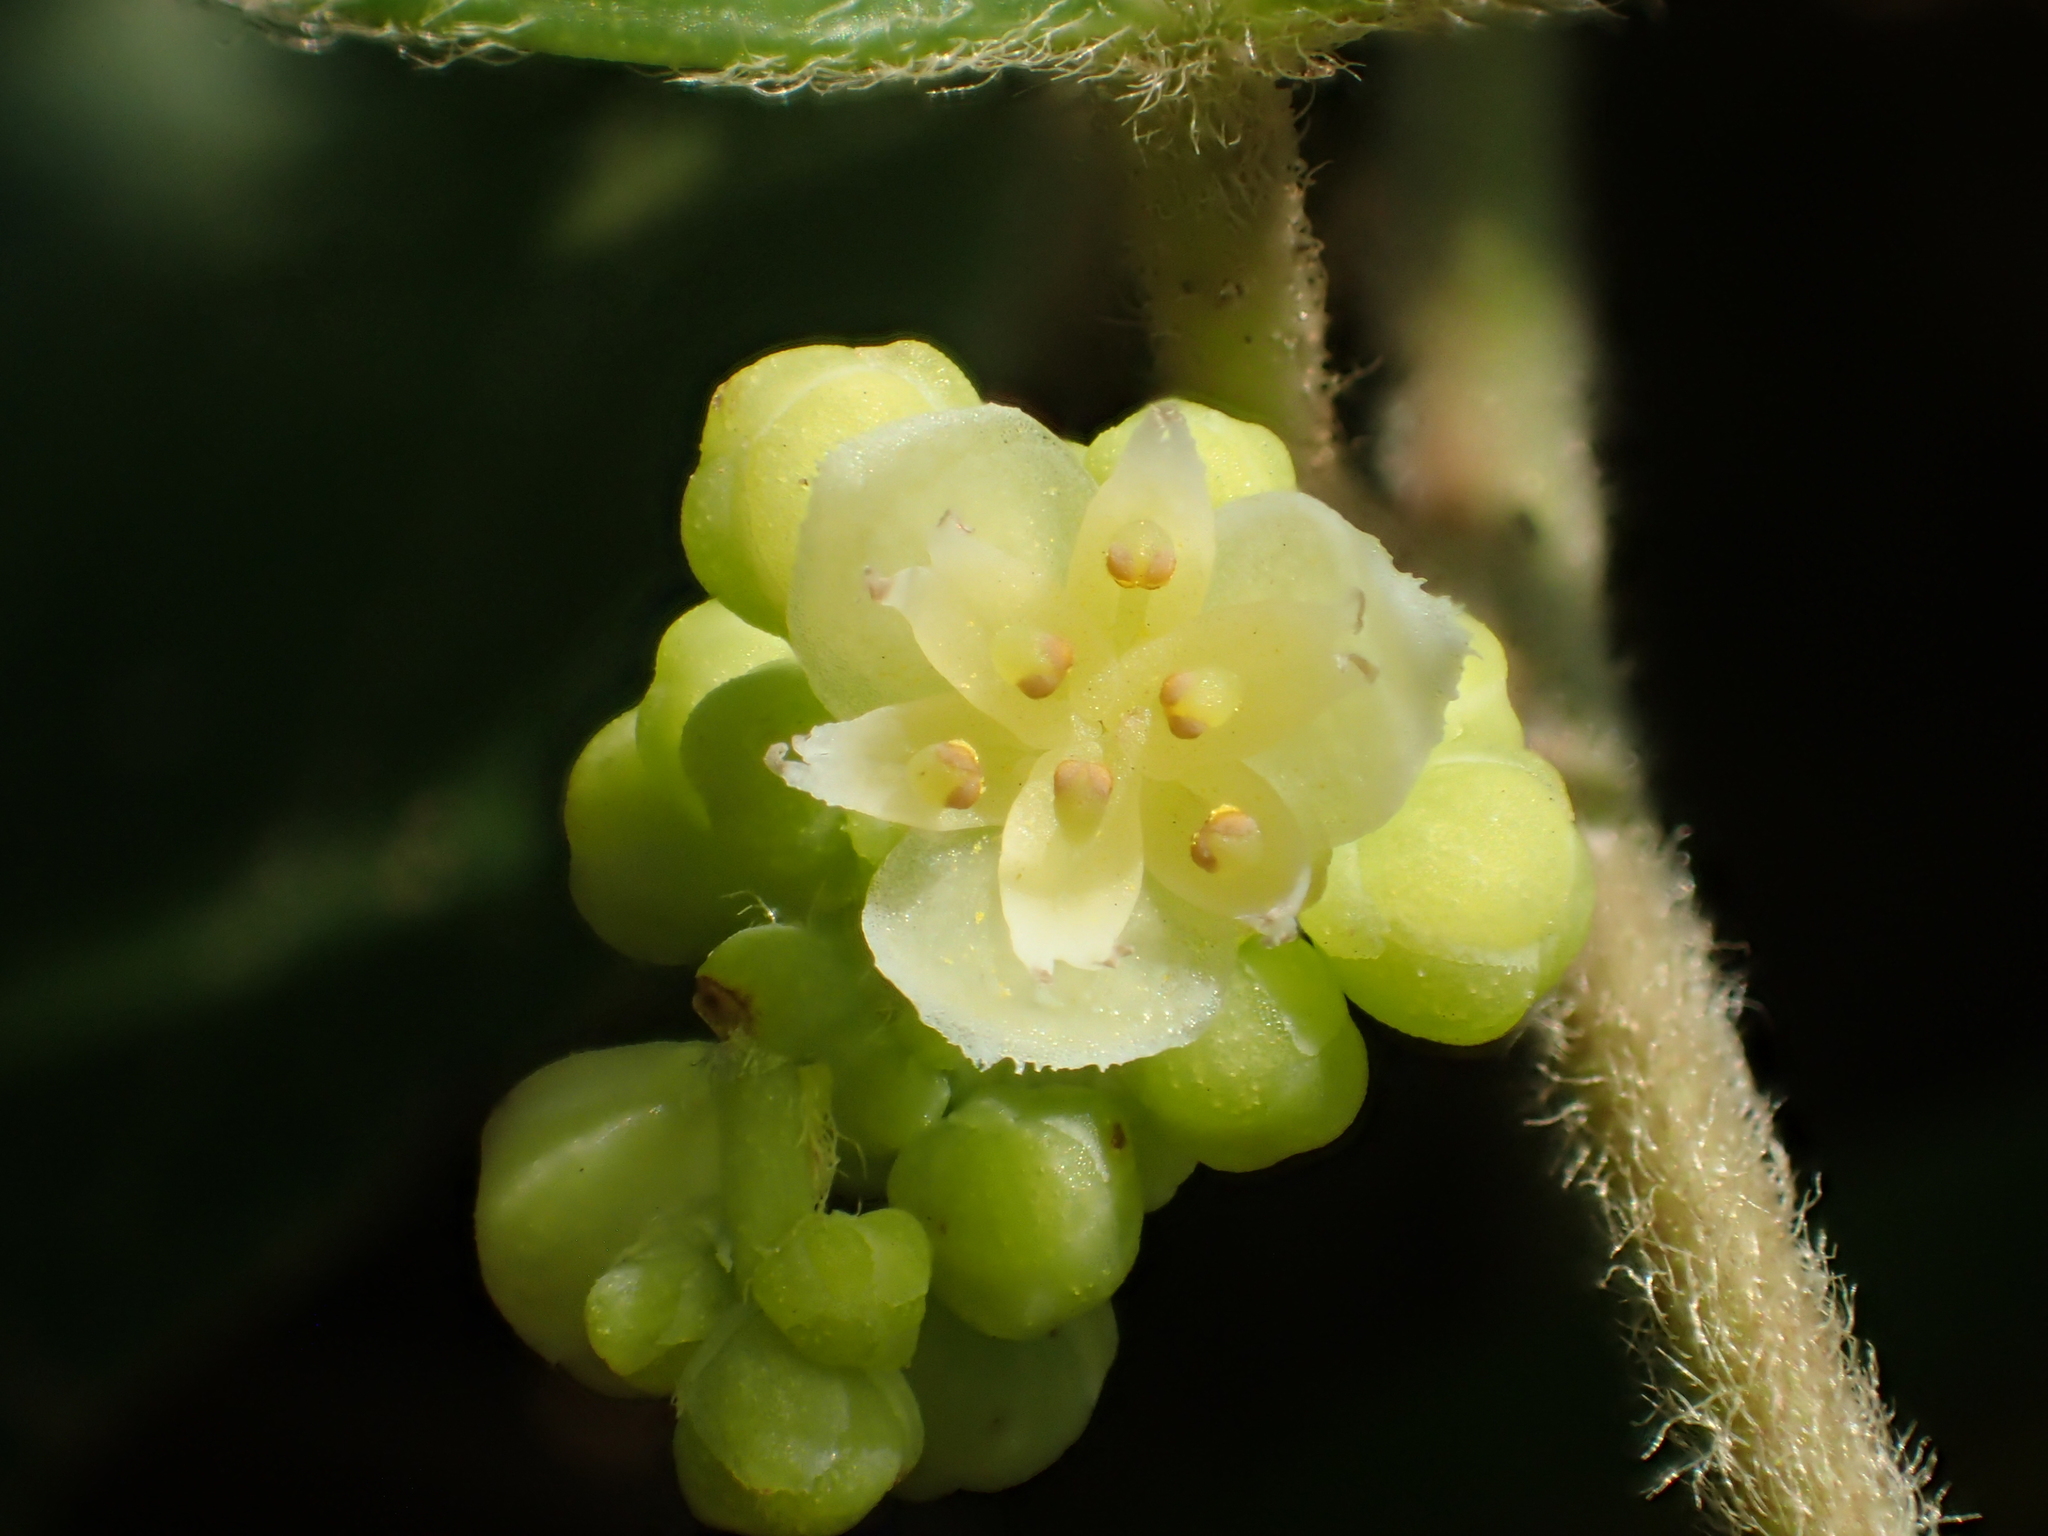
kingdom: Plantae
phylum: Tracheophyta
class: Magnoliopsida
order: Ranunculales
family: Menispermaceae
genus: Cocculus
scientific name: Cocculus orbiculatus
